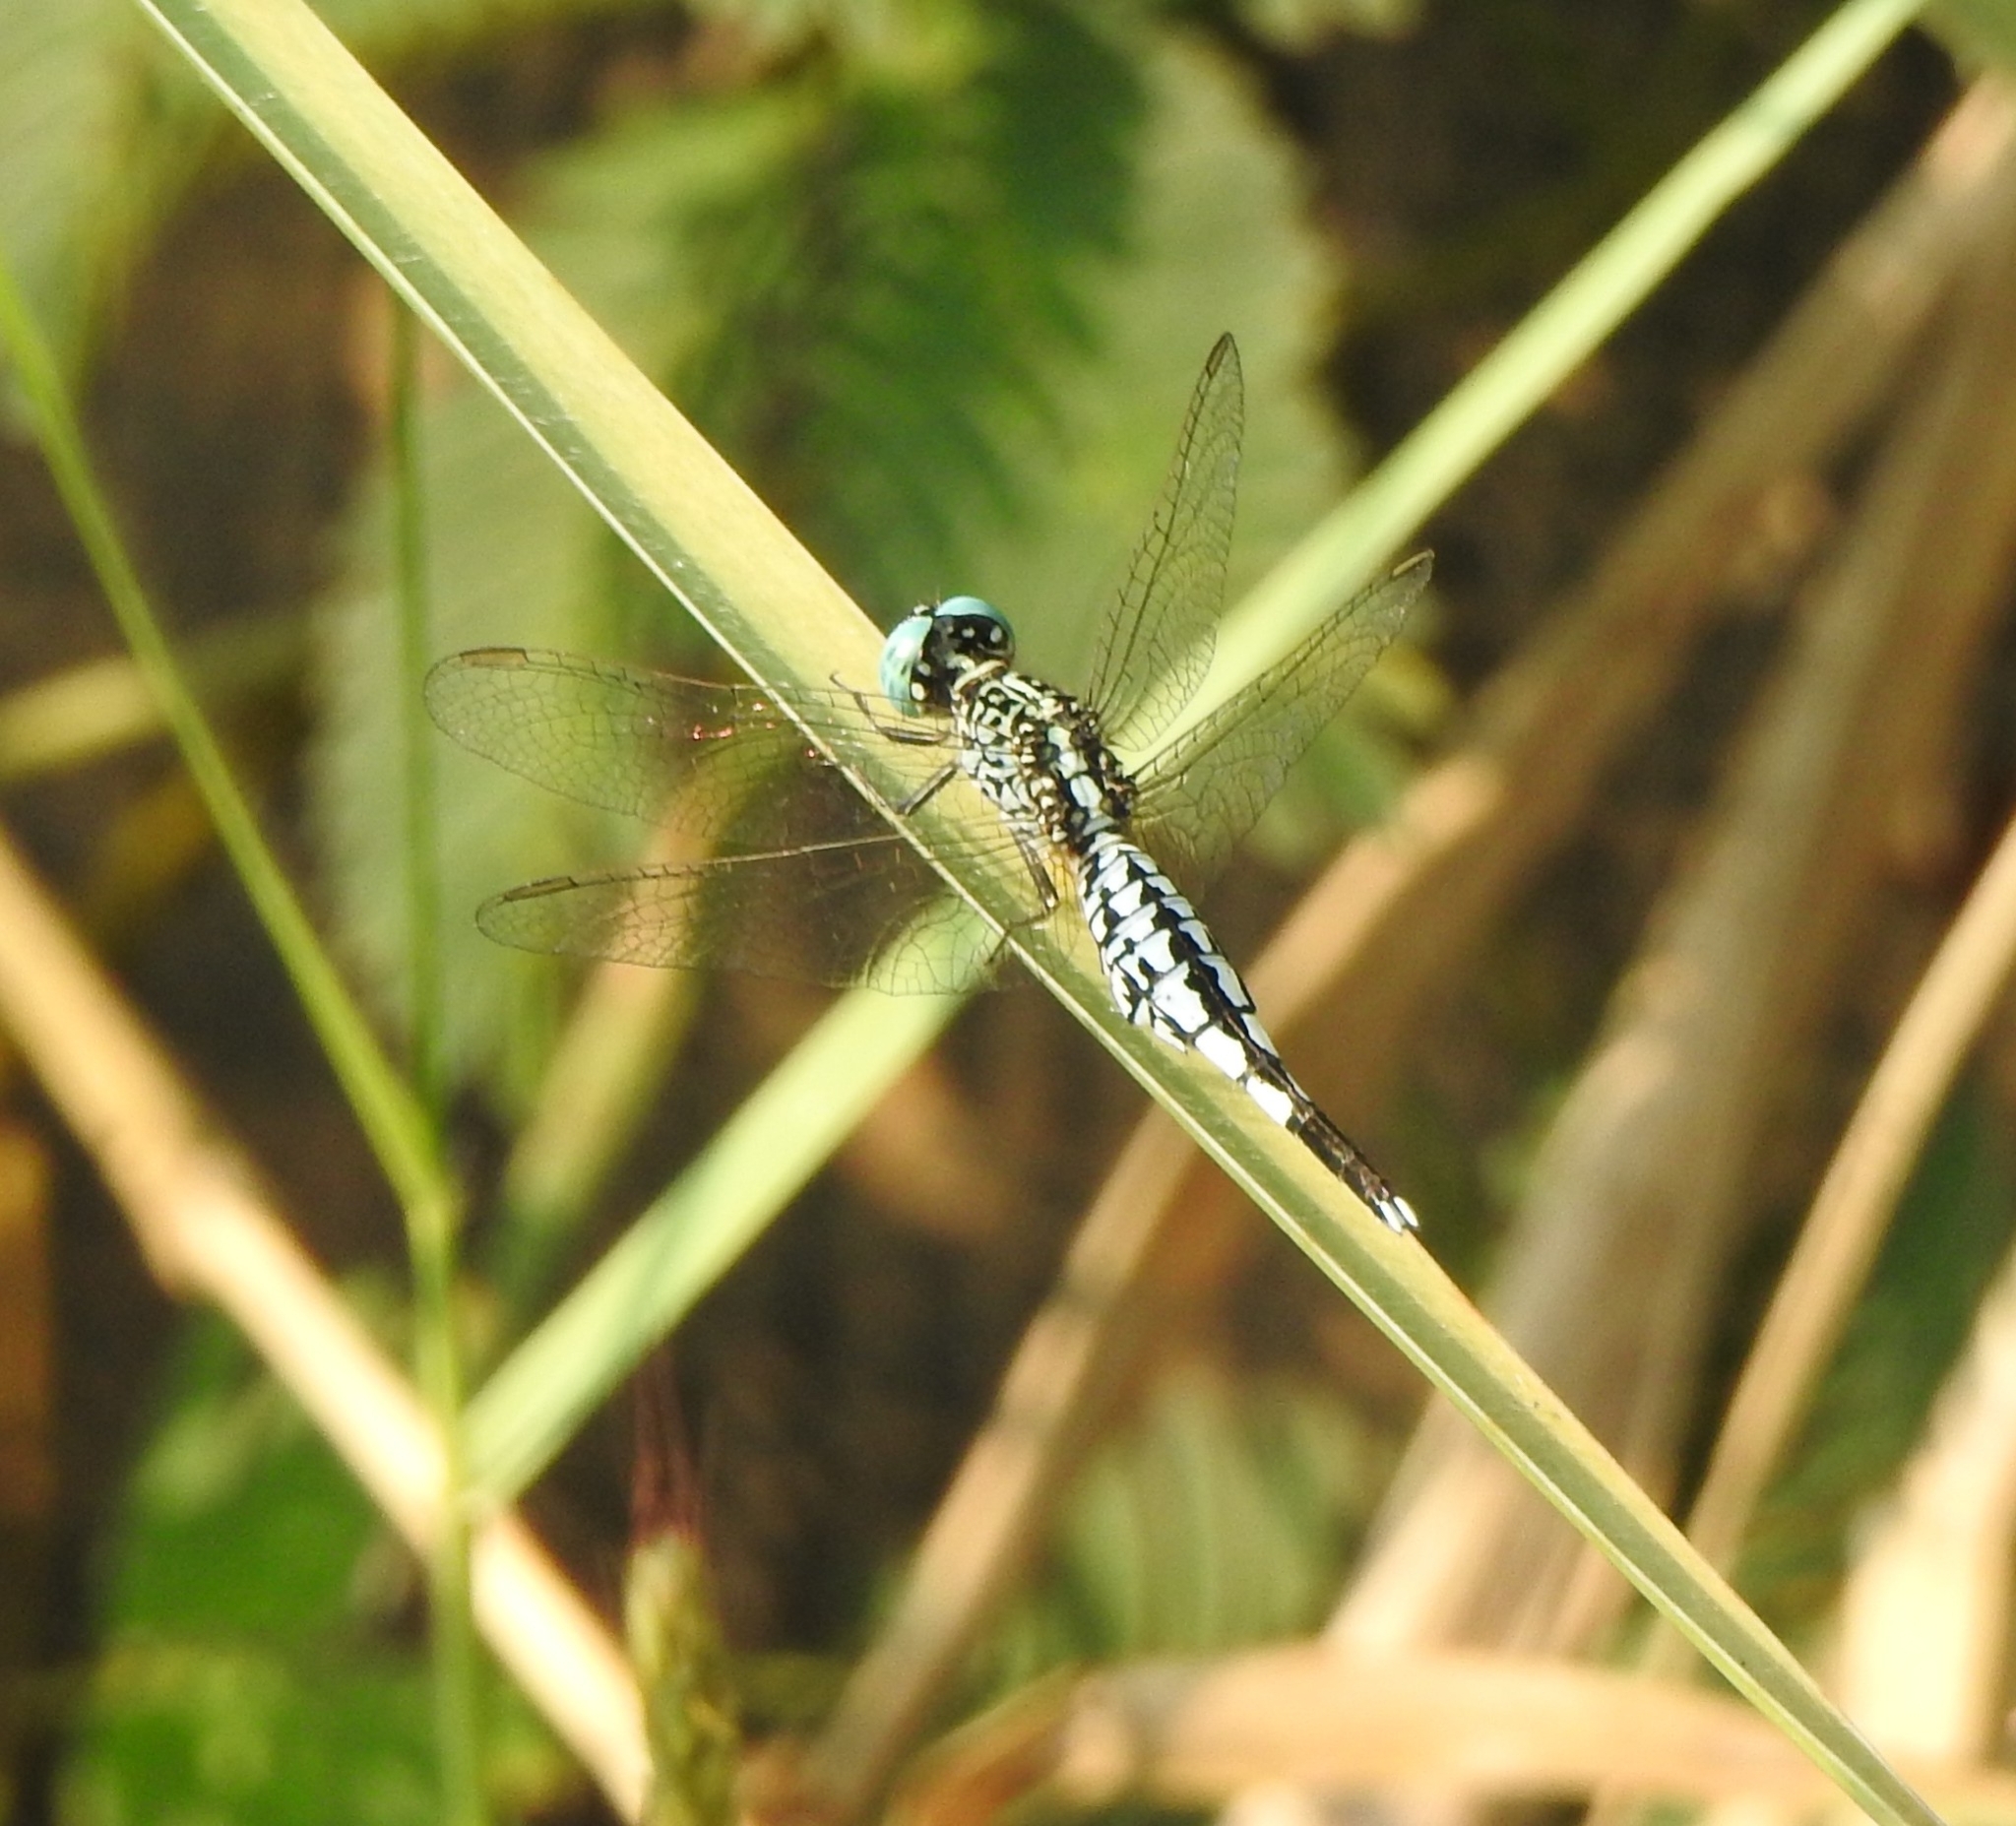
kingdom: Animalia
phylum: Arthropoda
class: Insecta
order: Odonata
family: Libellulidae
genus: Acisoma
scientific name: Acisoma panorpoides
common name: Asian pintail
